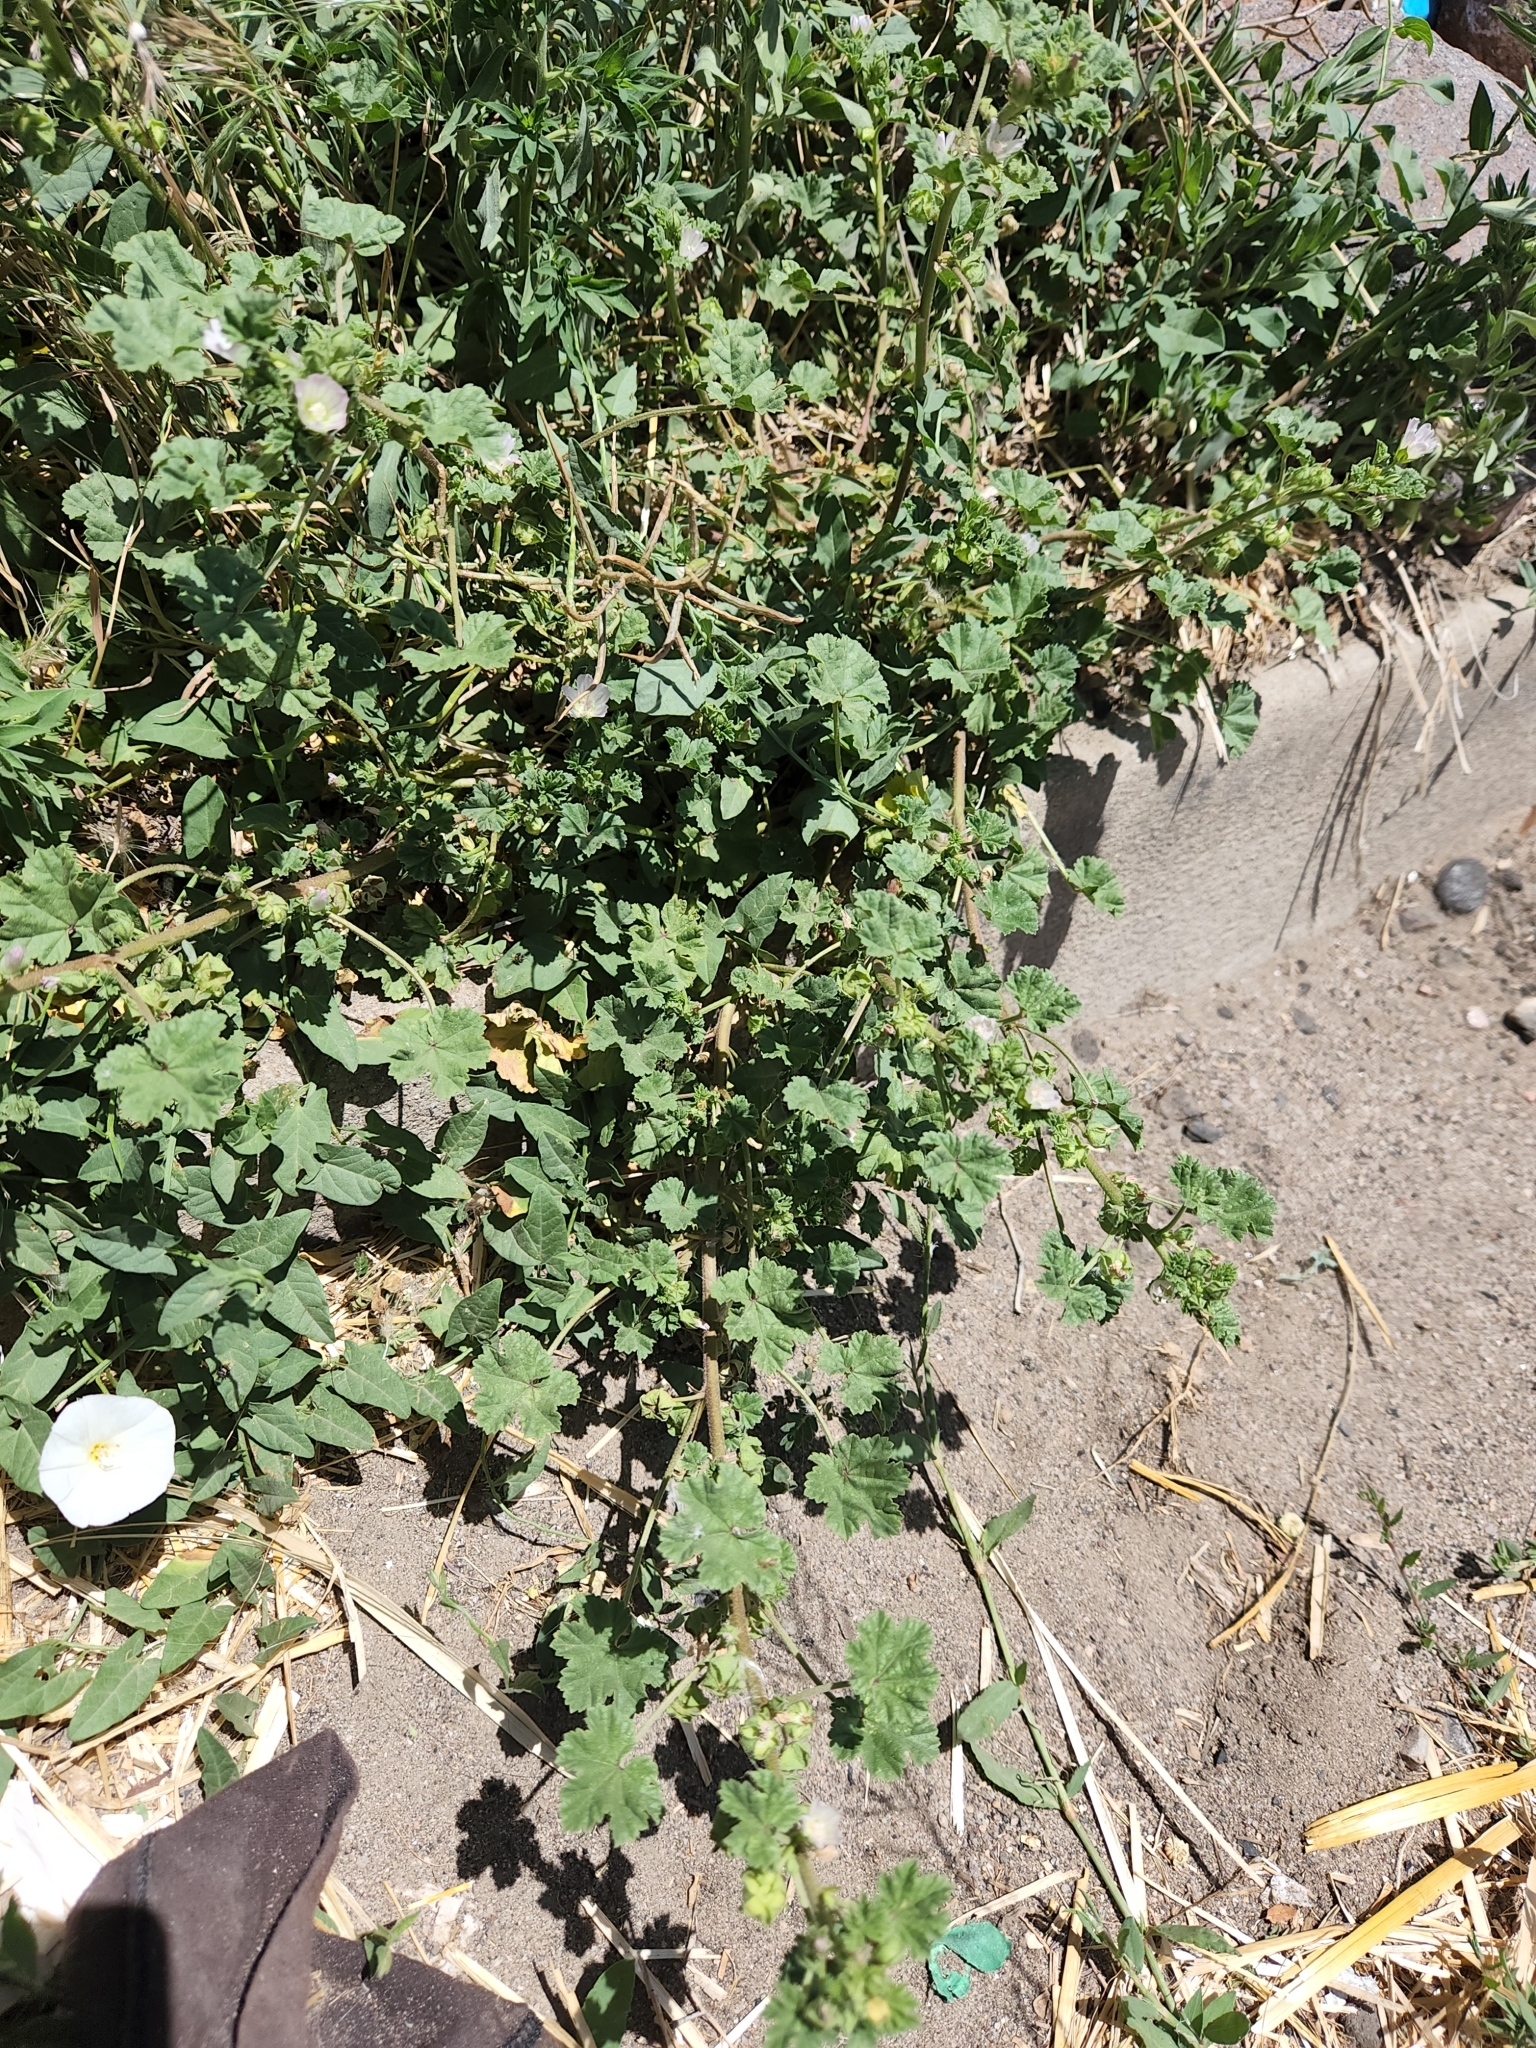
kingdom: Plantae
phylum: Tracheophyta
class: Magnoliopsida
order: Malvales
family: Malvaceae
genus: Malva
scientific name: Malva neglecta
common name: Common mallow
